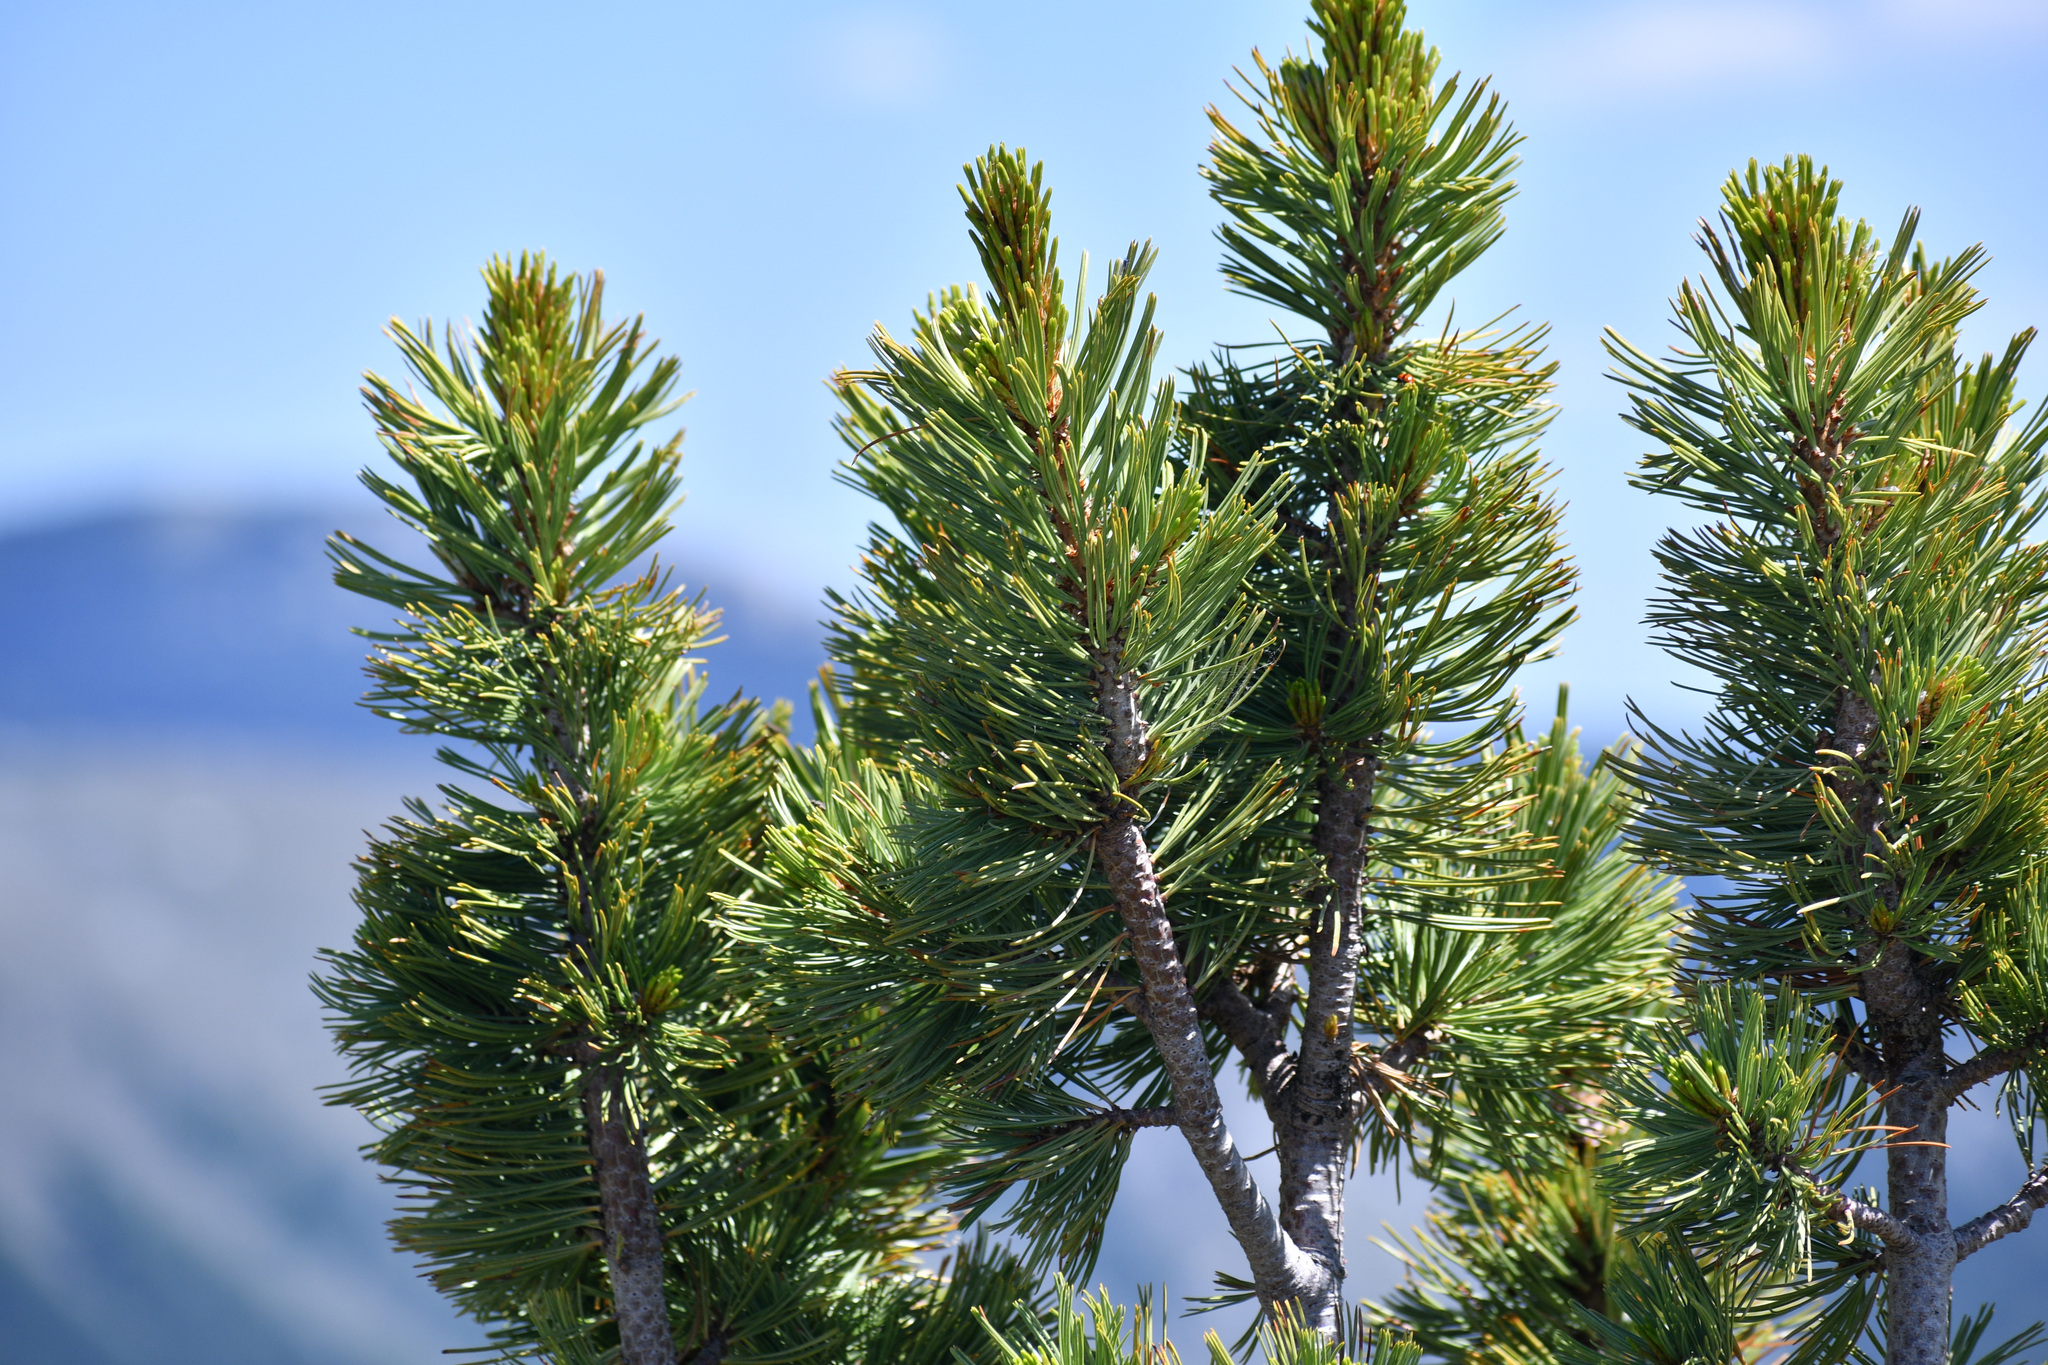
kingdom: Plantae
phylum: Tracheophyta
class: Pinopsida
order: Pinales
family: Pinaceae
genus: Pinus
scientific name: Pinus albicaulis
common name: Whitebark pine
